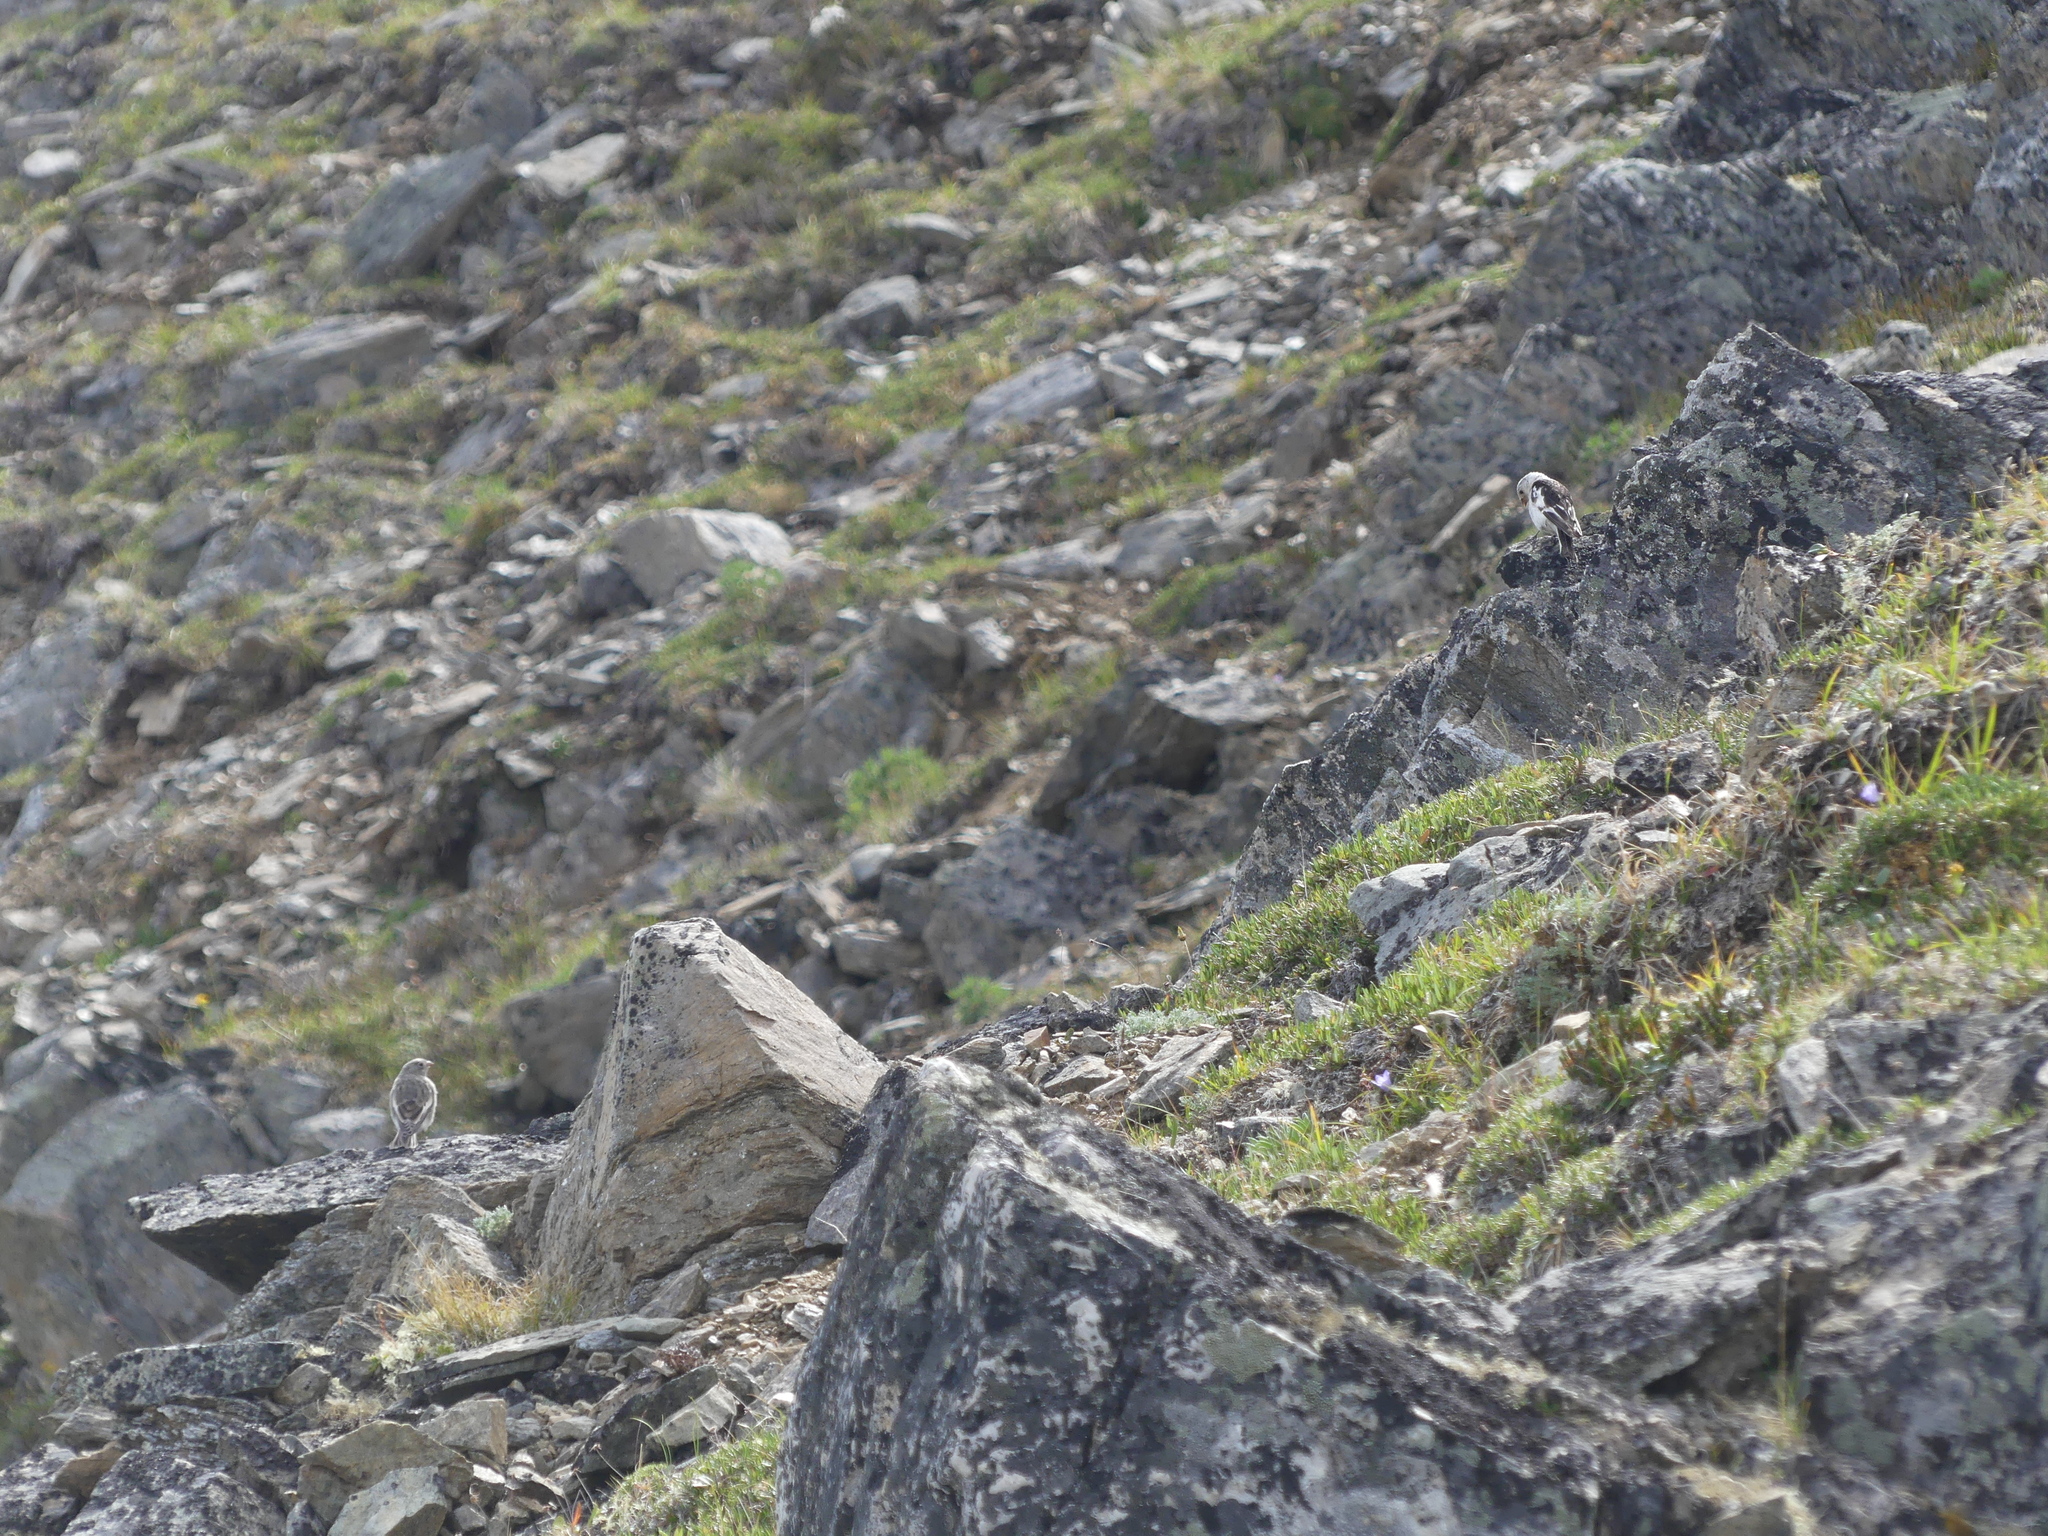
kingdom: Animalia
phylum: Chordata
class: Aves
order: Passeriformes
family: Calcariidae
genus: Plectrophenax
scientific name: Plectrophenax nivalis
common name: Snow bunting
